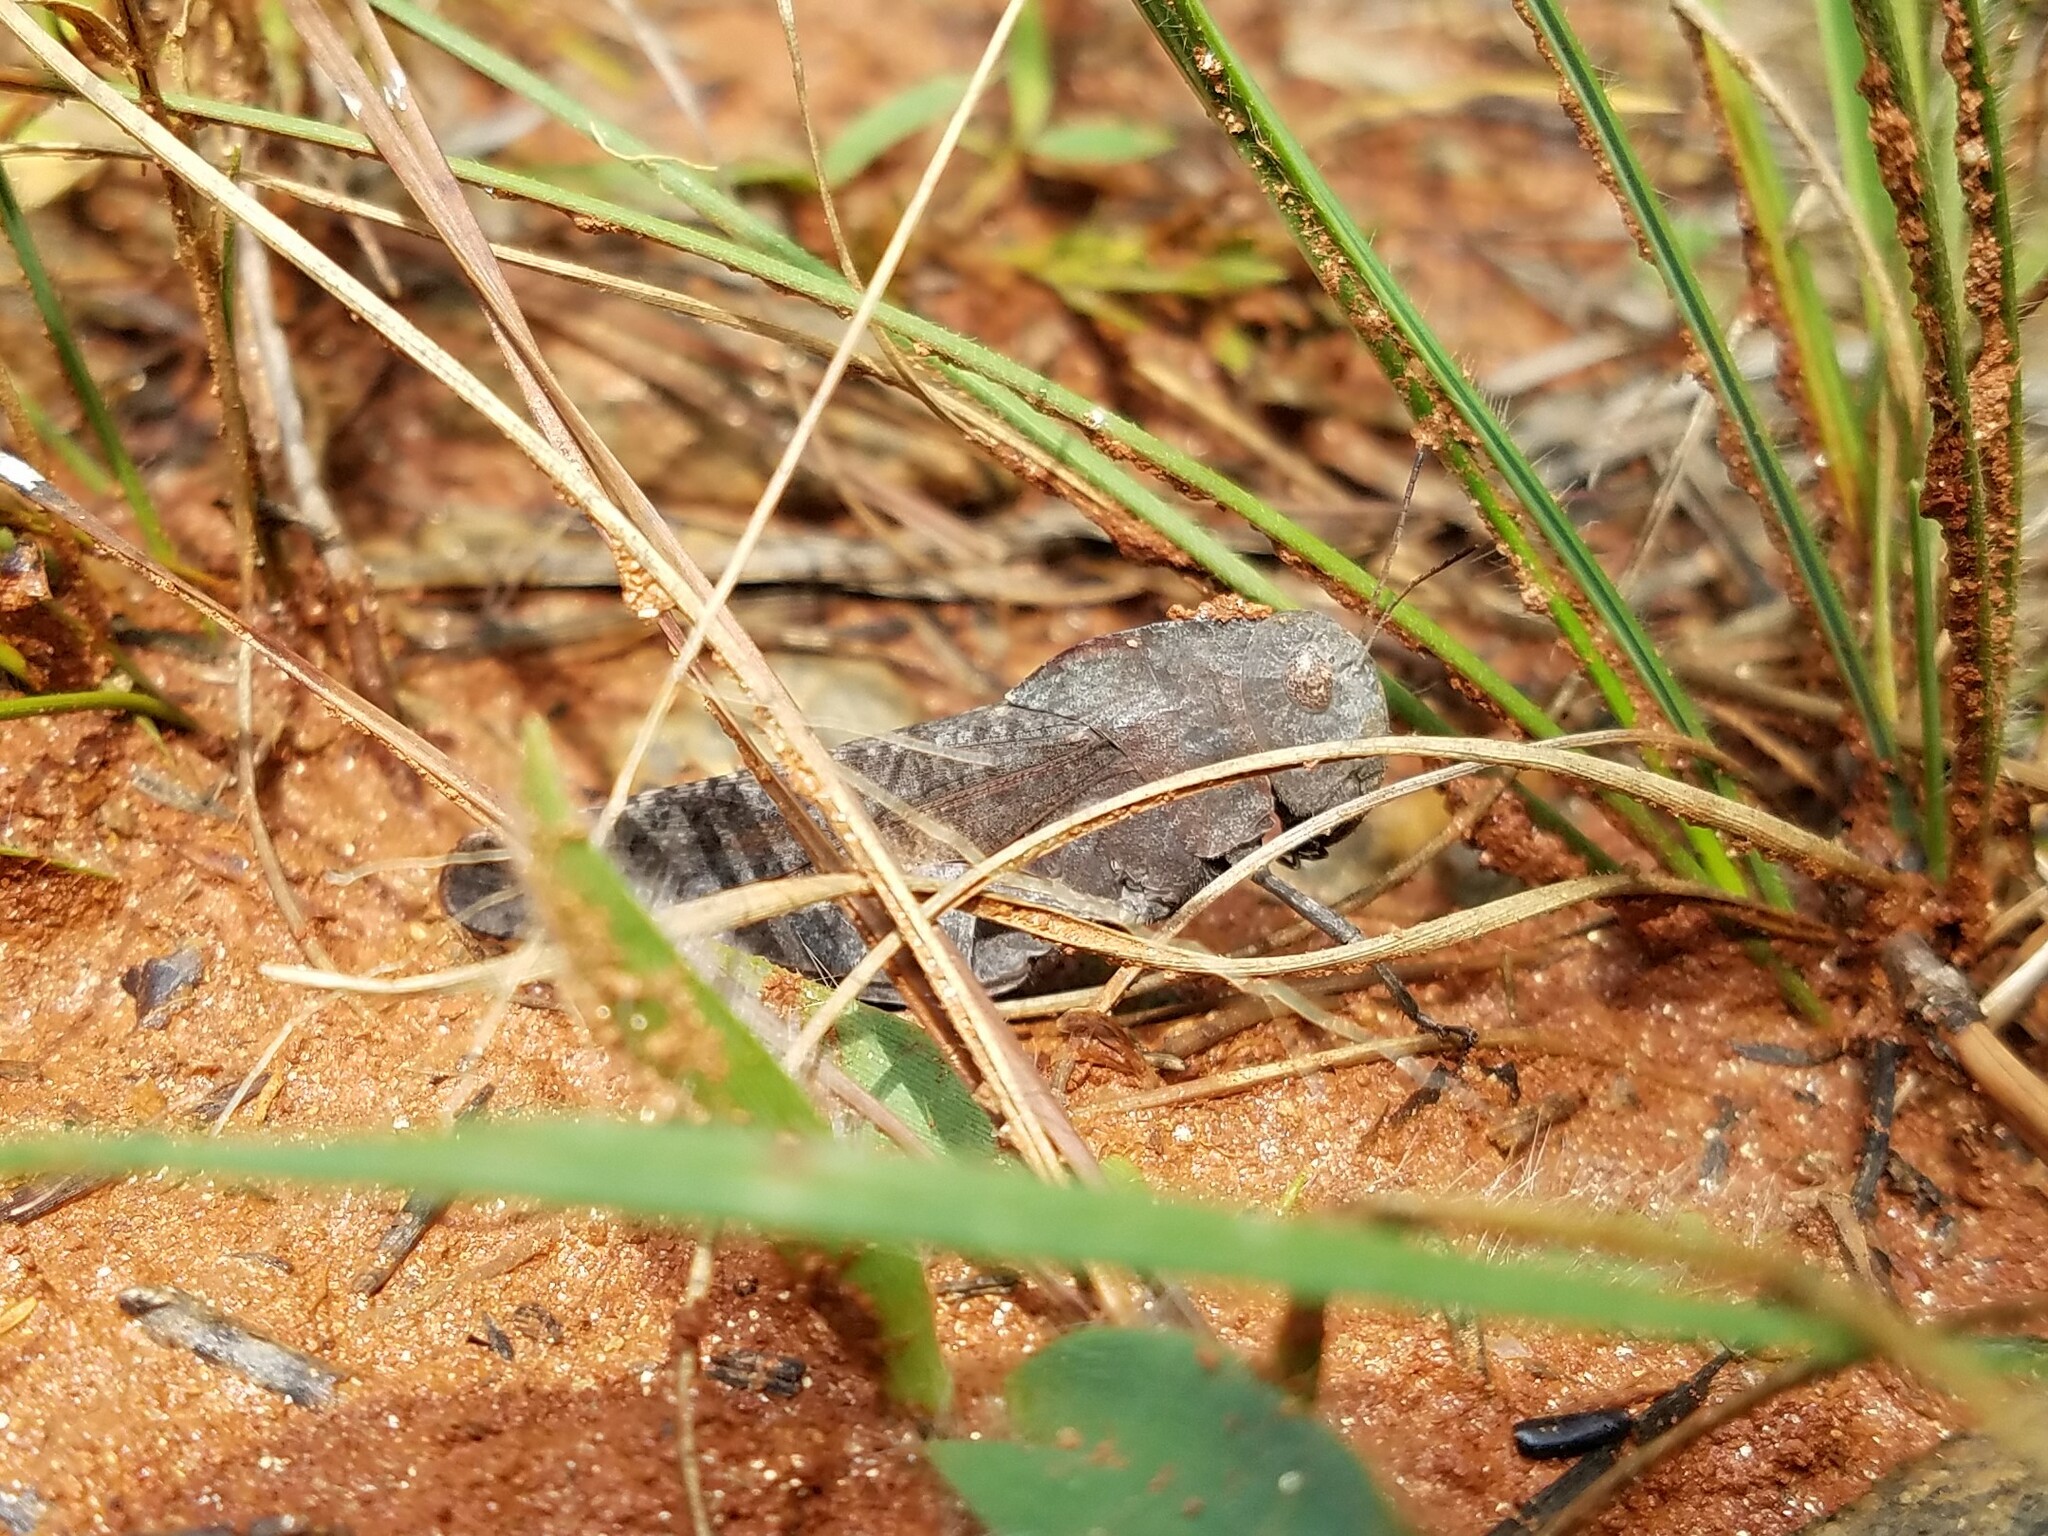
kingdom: Animalia
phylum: Arthropoda
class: Insecta
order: Orthoptera
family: Acrididae
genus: Arphia
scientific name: Arphia xanthoptera
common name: Autumn yellow-winged grasshopper
